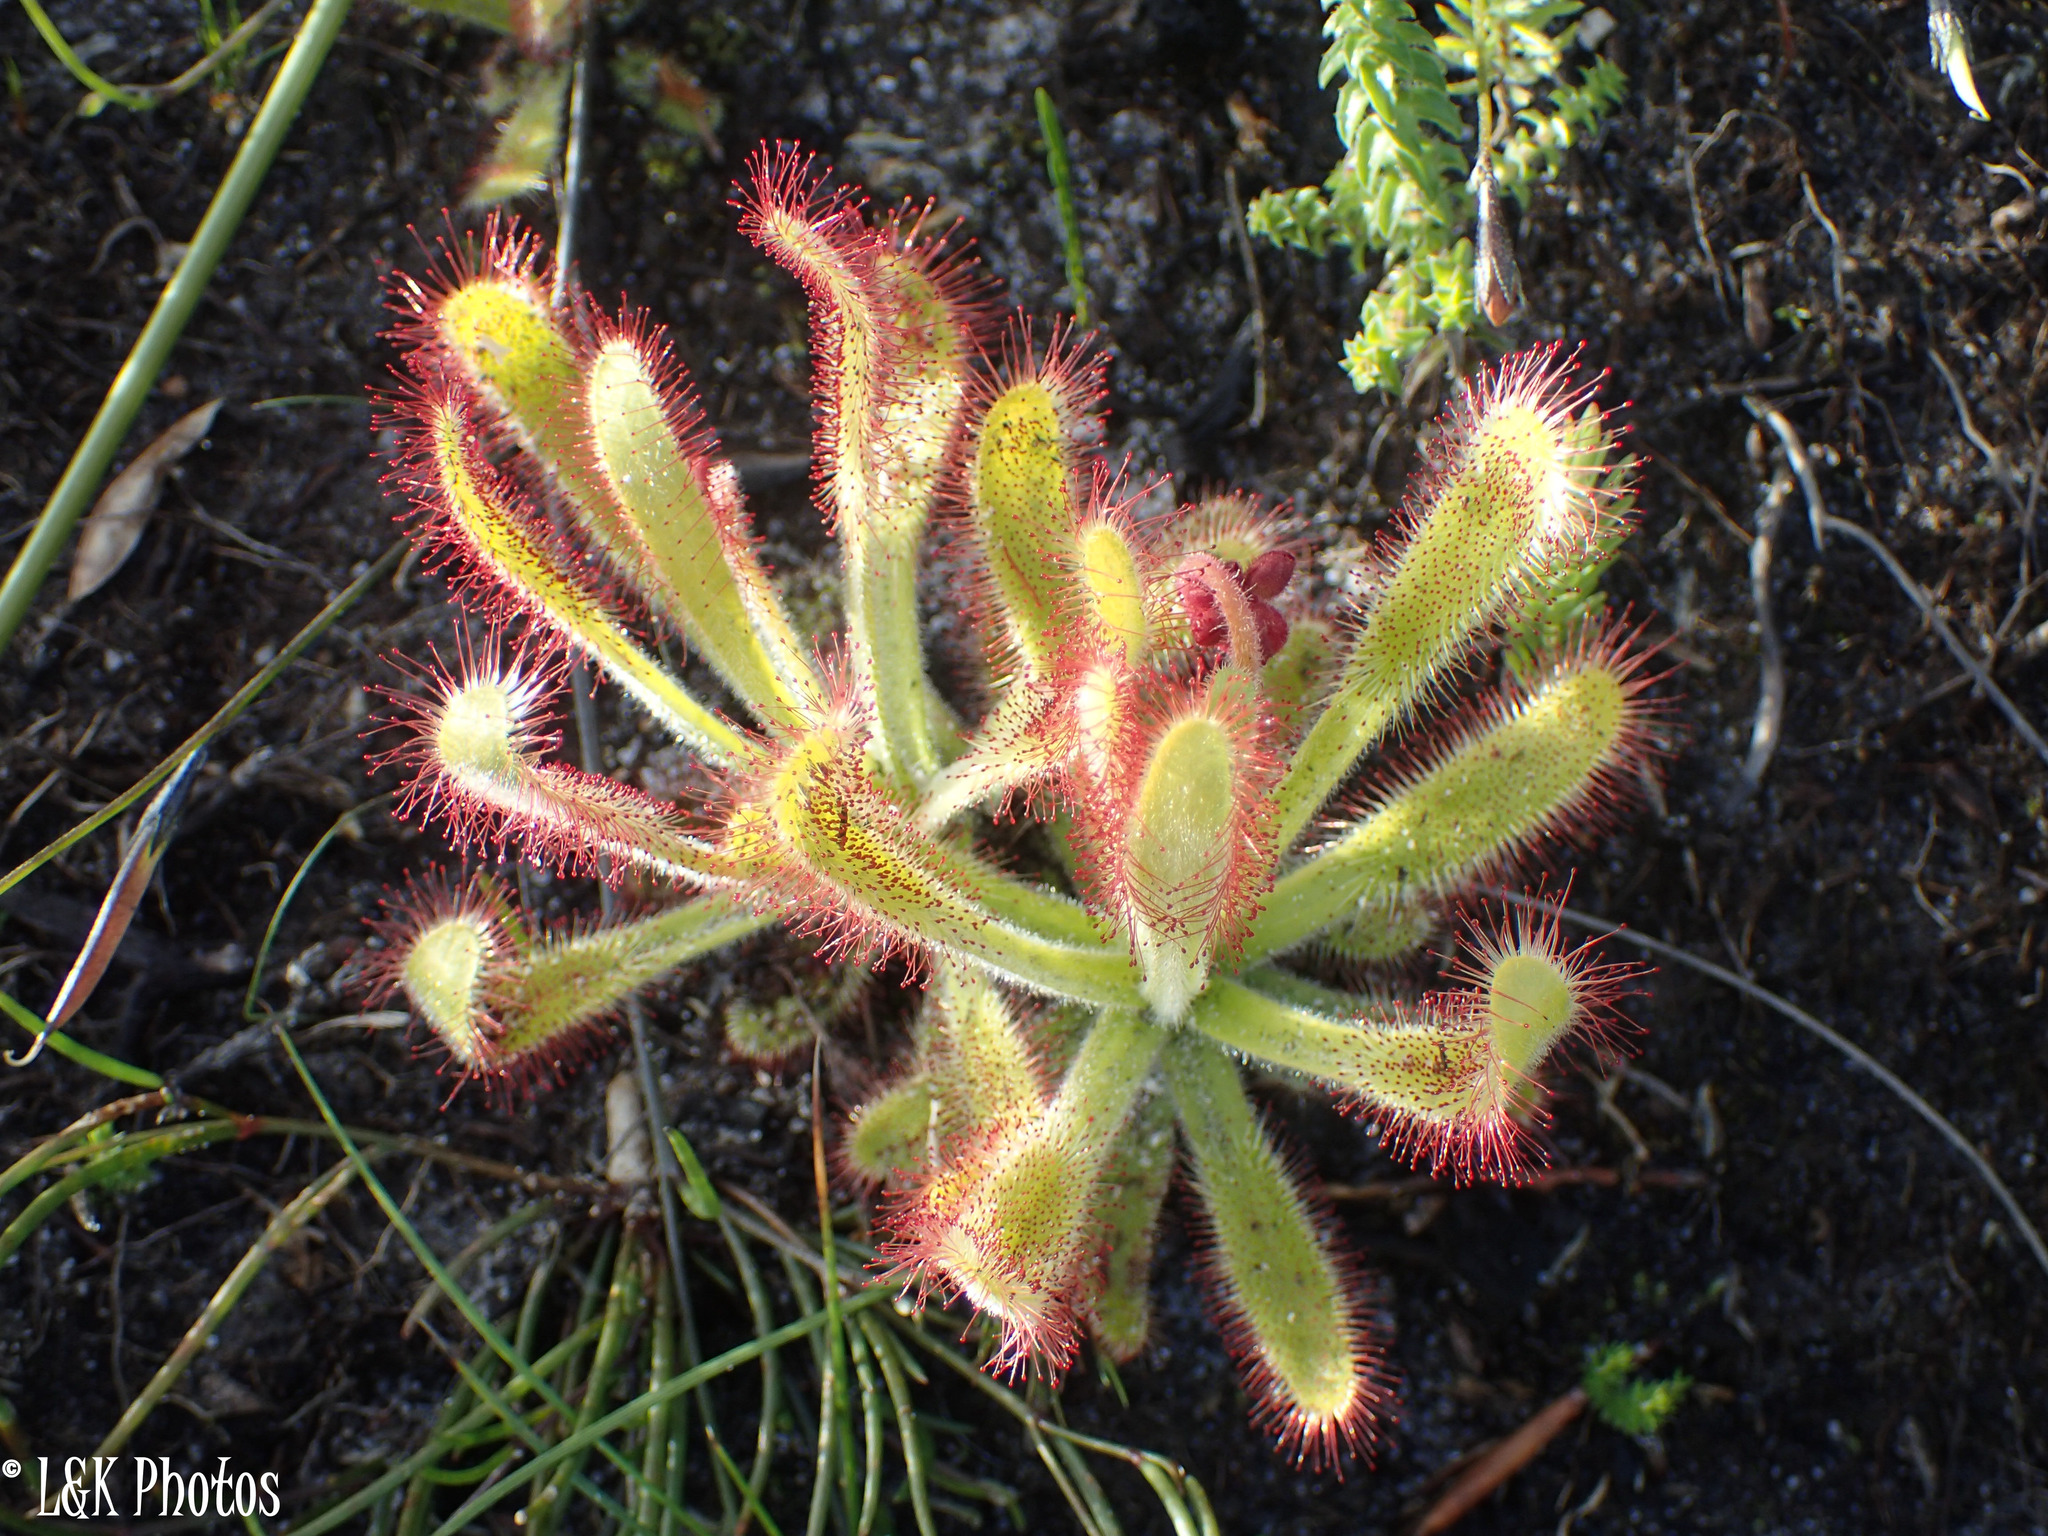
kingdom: Plantae
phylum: Tracheophyta
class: Magnoliopsida
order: Caryophyllales
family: Droseraceae
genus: Drosera
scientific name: Drosera hilaris
